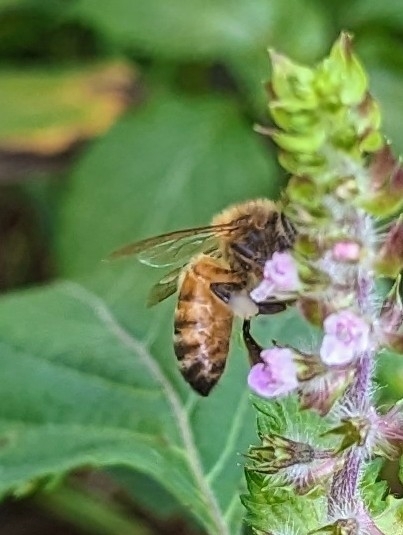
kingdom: Animalia
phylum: Arthropoda
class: Insecta
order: Hymenoptera
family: Apidae
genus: Apis
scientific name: Apis mellifera
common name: Honey bee
